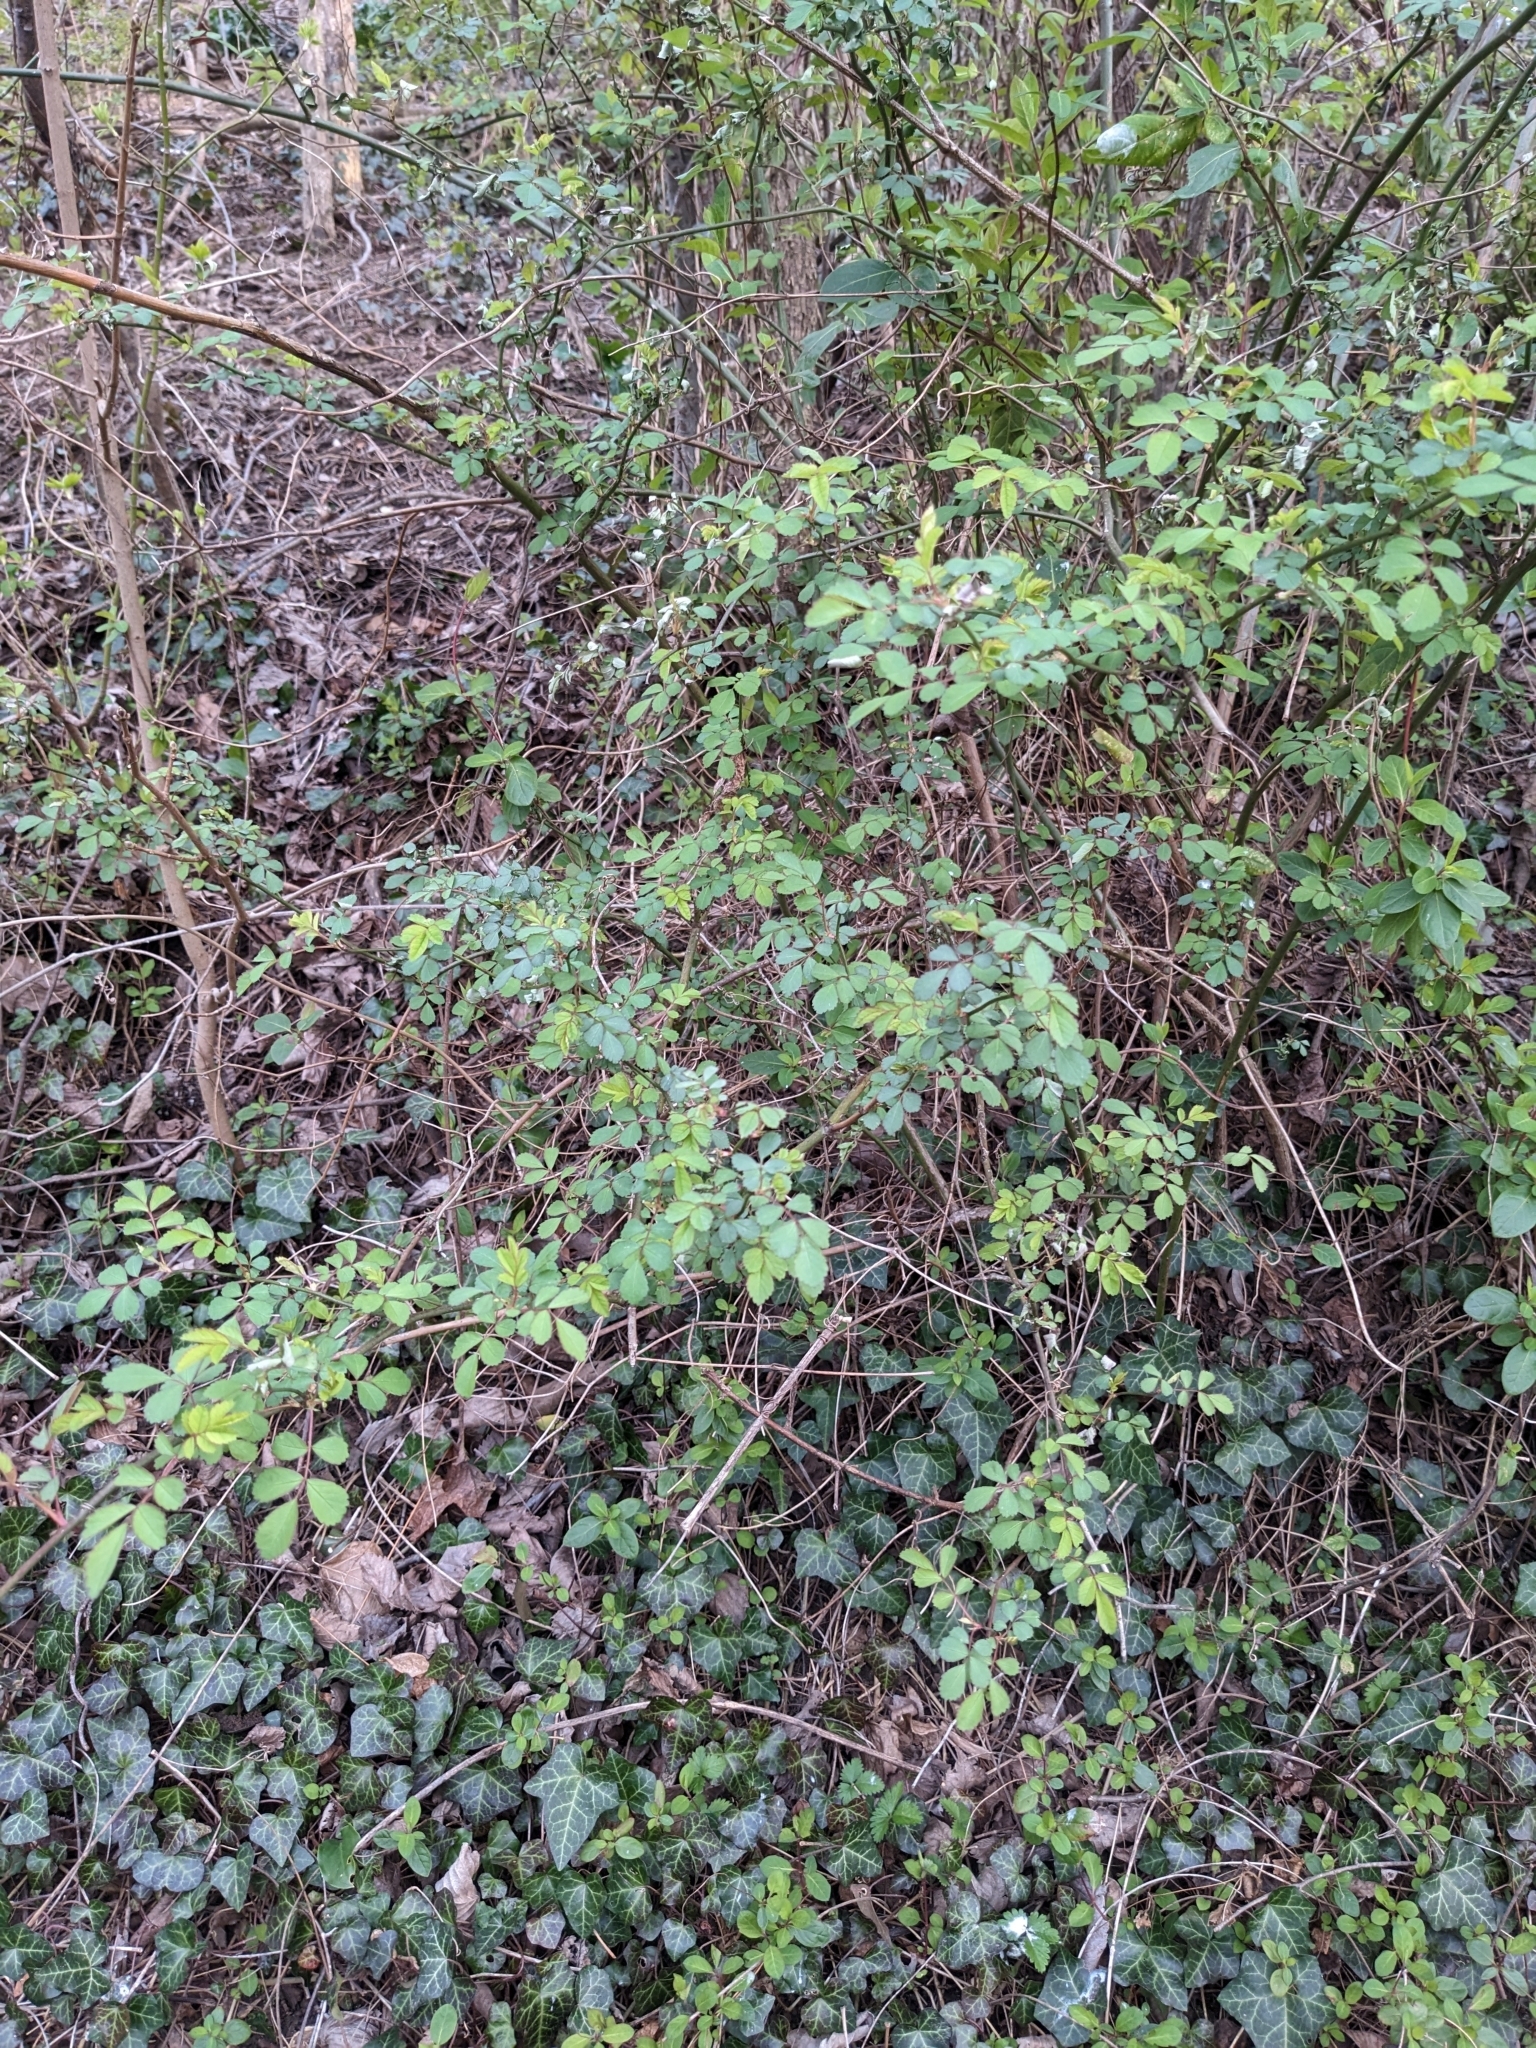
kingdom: Plantae
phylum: Tracheophyta
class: Magnoliopsida
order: Rosales
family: Rosaceae
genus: Rosa
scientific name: Rosa multiflora
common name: Multiflora rose
